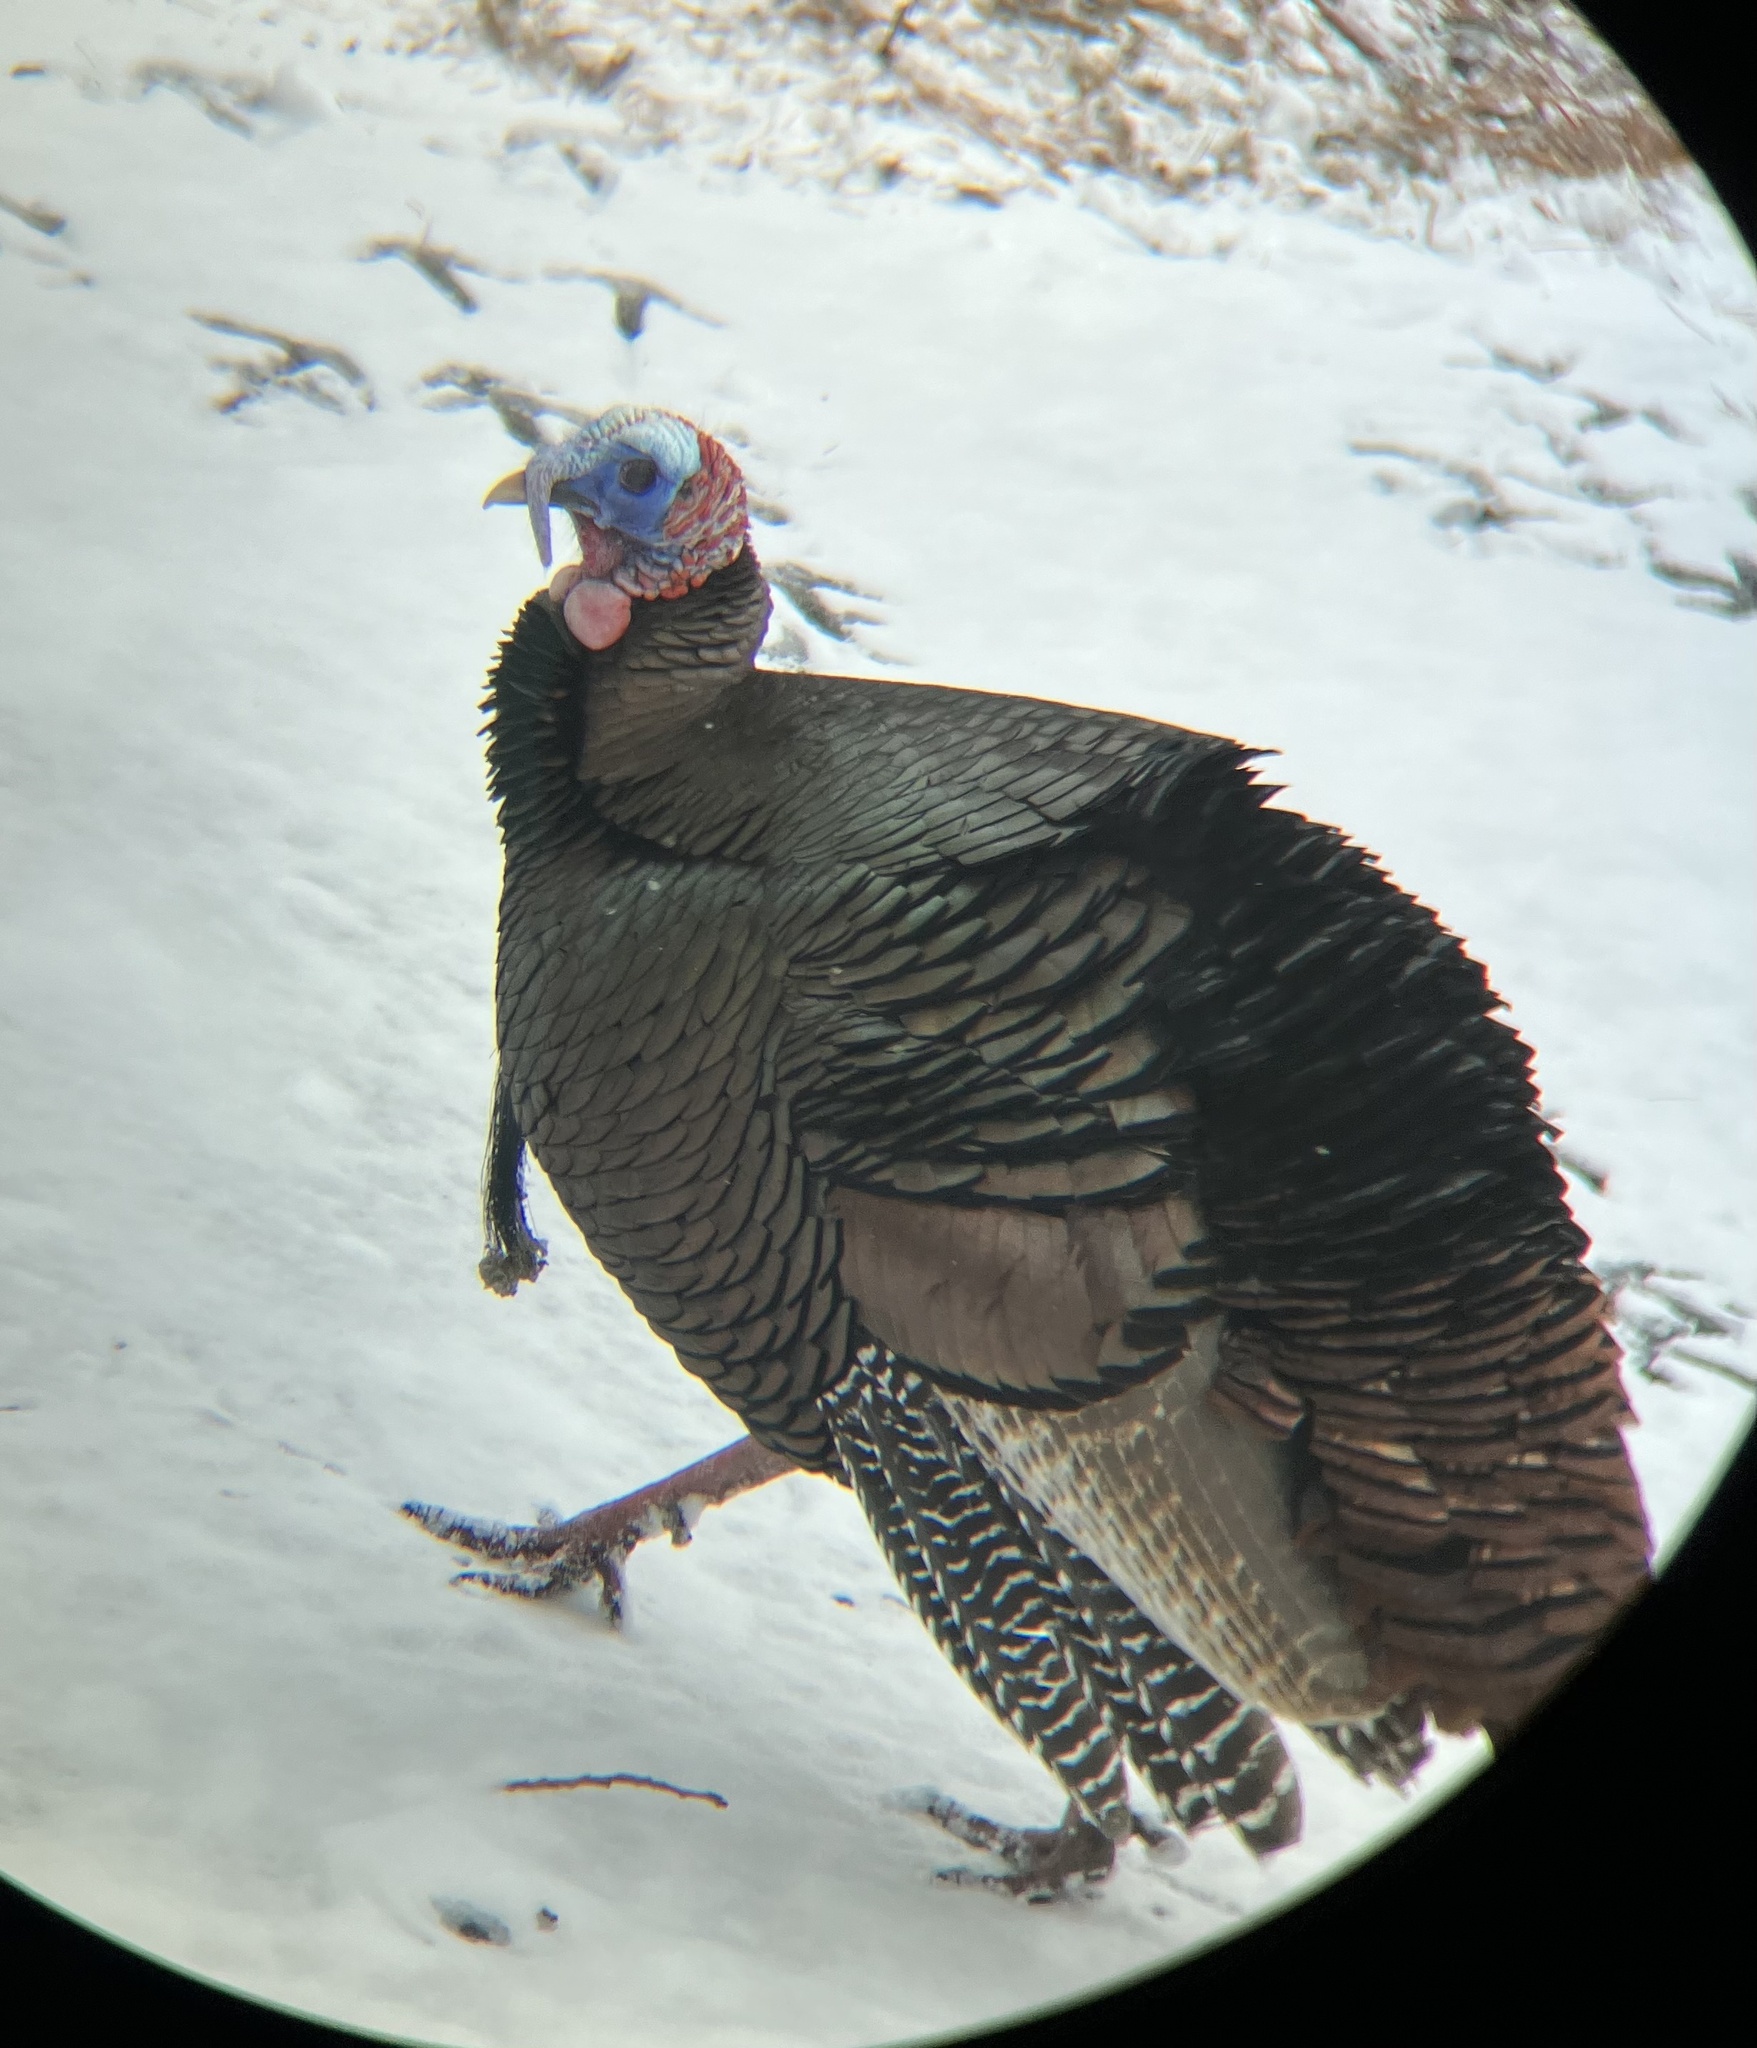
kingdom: Animalia
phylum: Chordata
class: Aves
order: Galliformes
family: Phasianidae
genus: Meleagris
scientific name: Meleagris gallopavo
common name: Wild turkey
